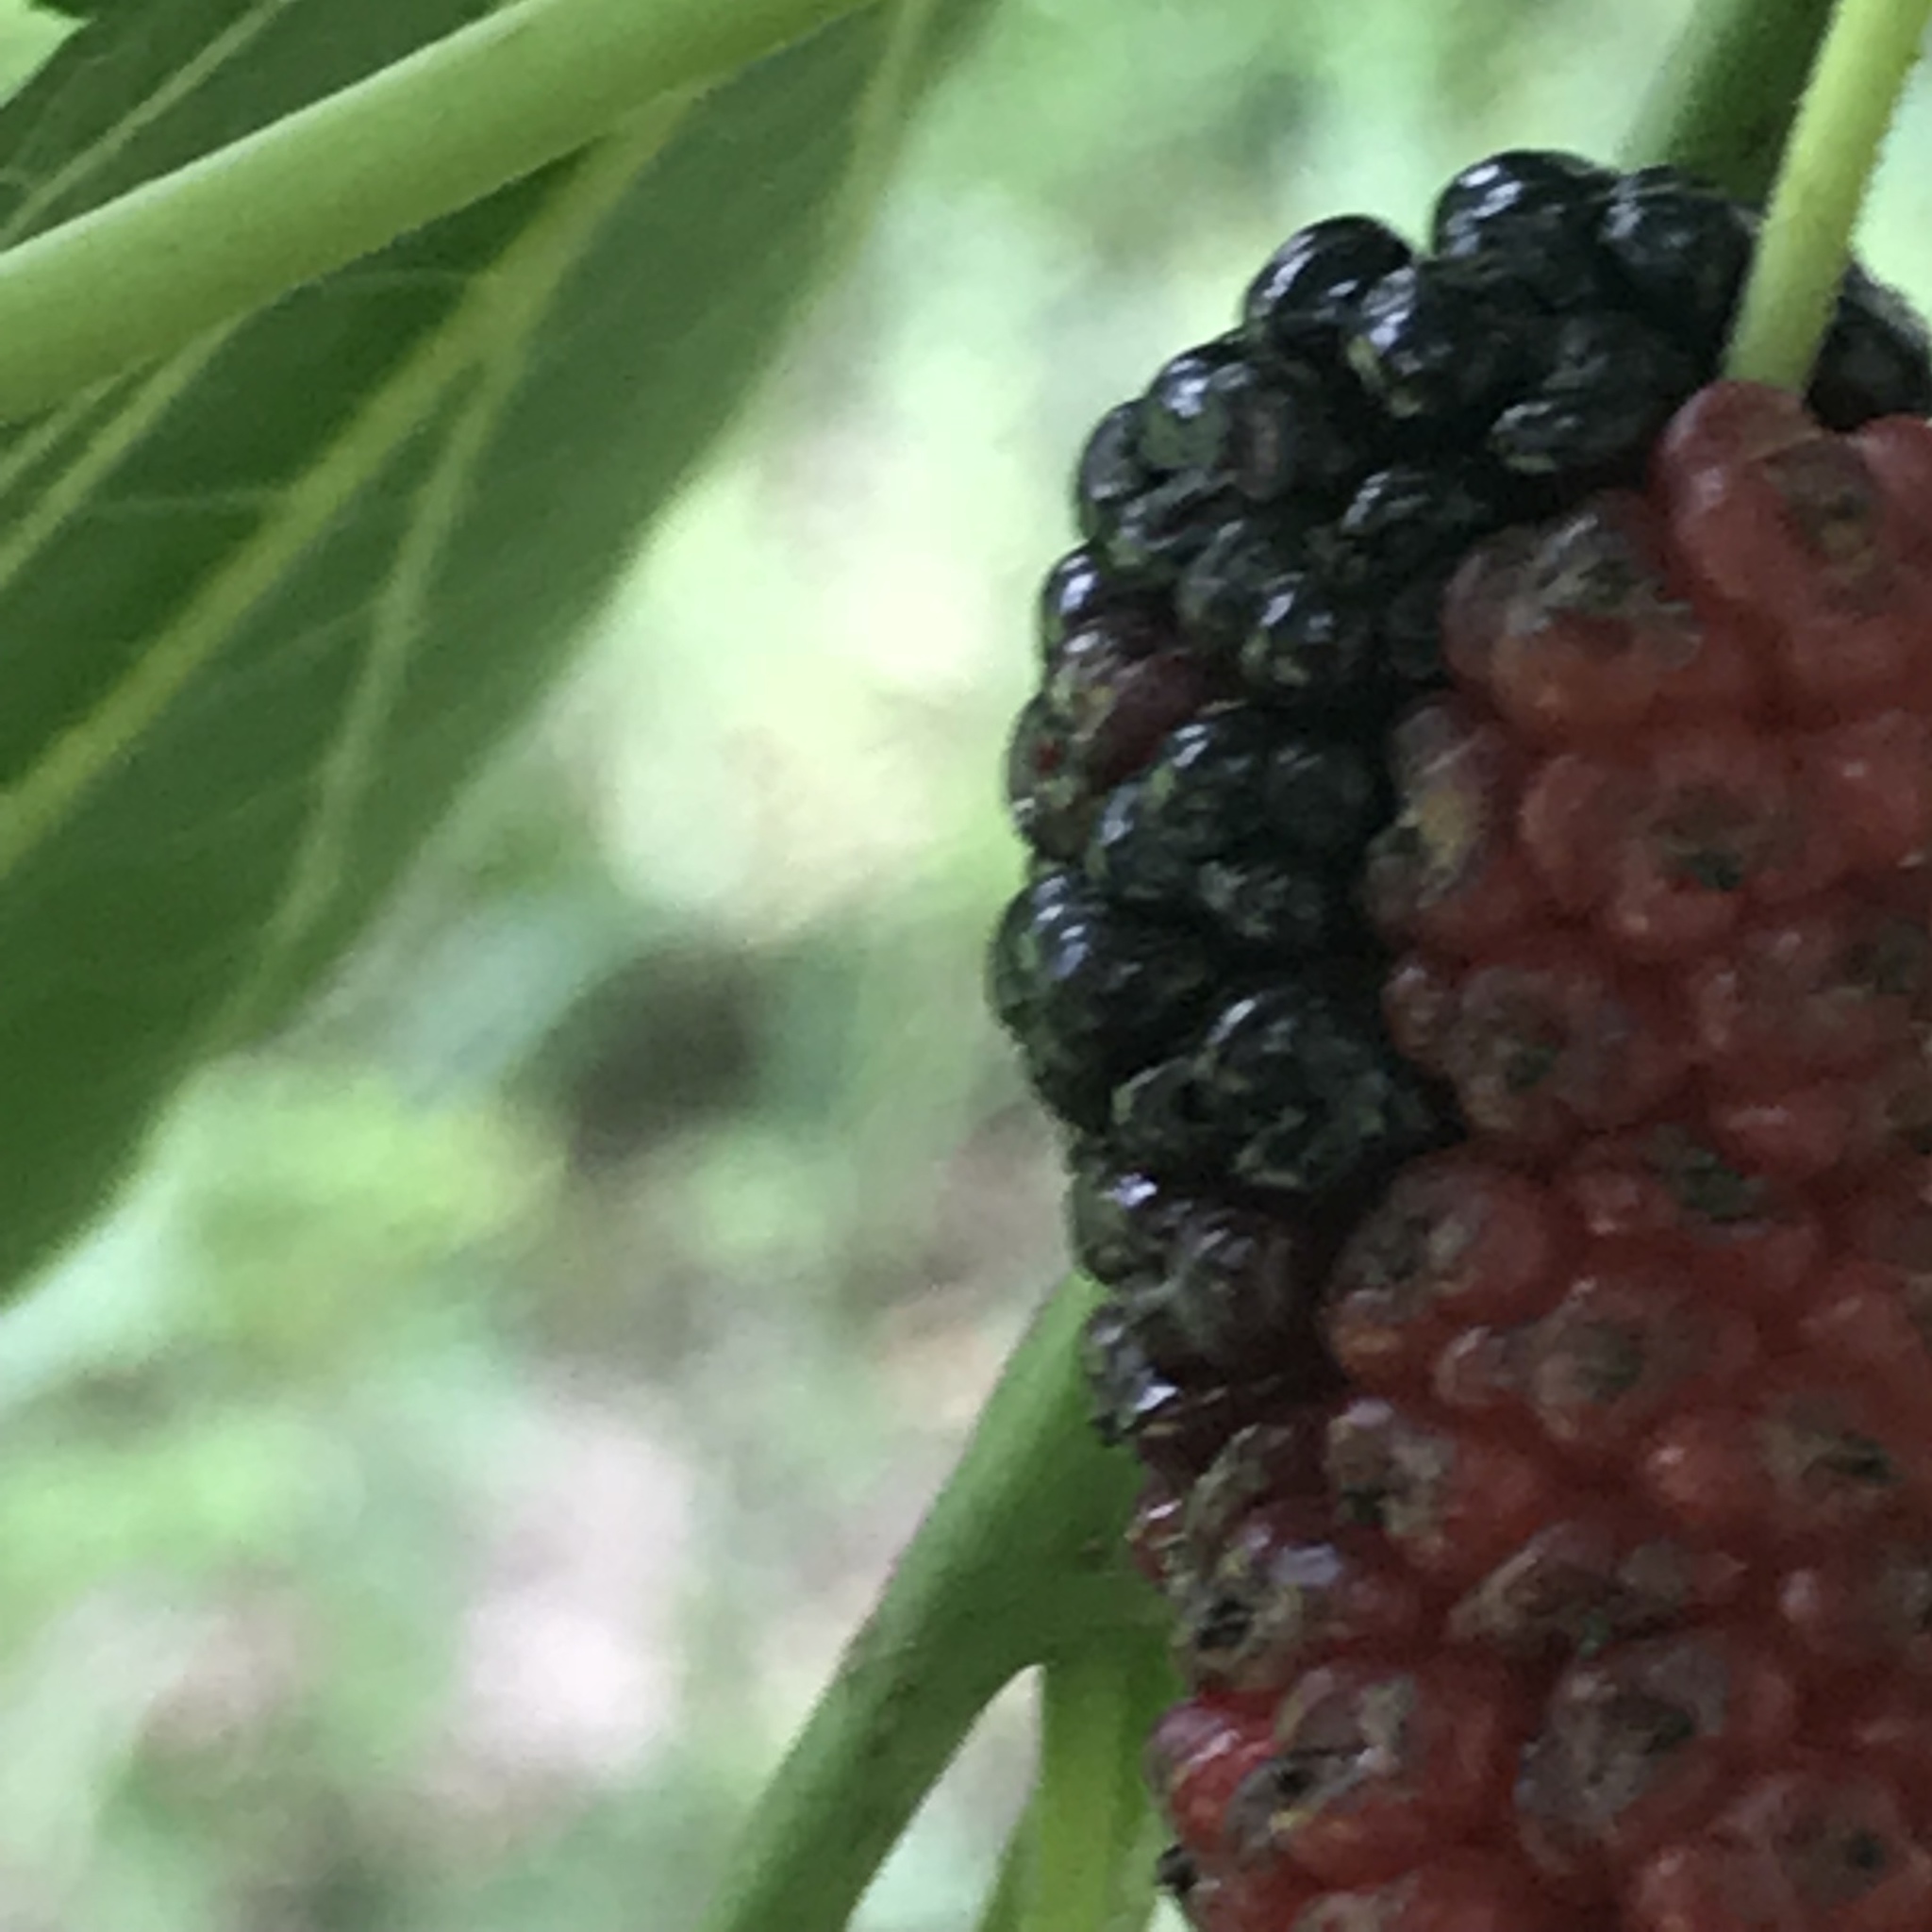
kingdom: Plantae
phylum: Tracheophyta
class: Magnoliopsida
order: Rosales
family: Moraceae
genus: Morus
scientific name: Morus rubra
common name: Red mulberry
